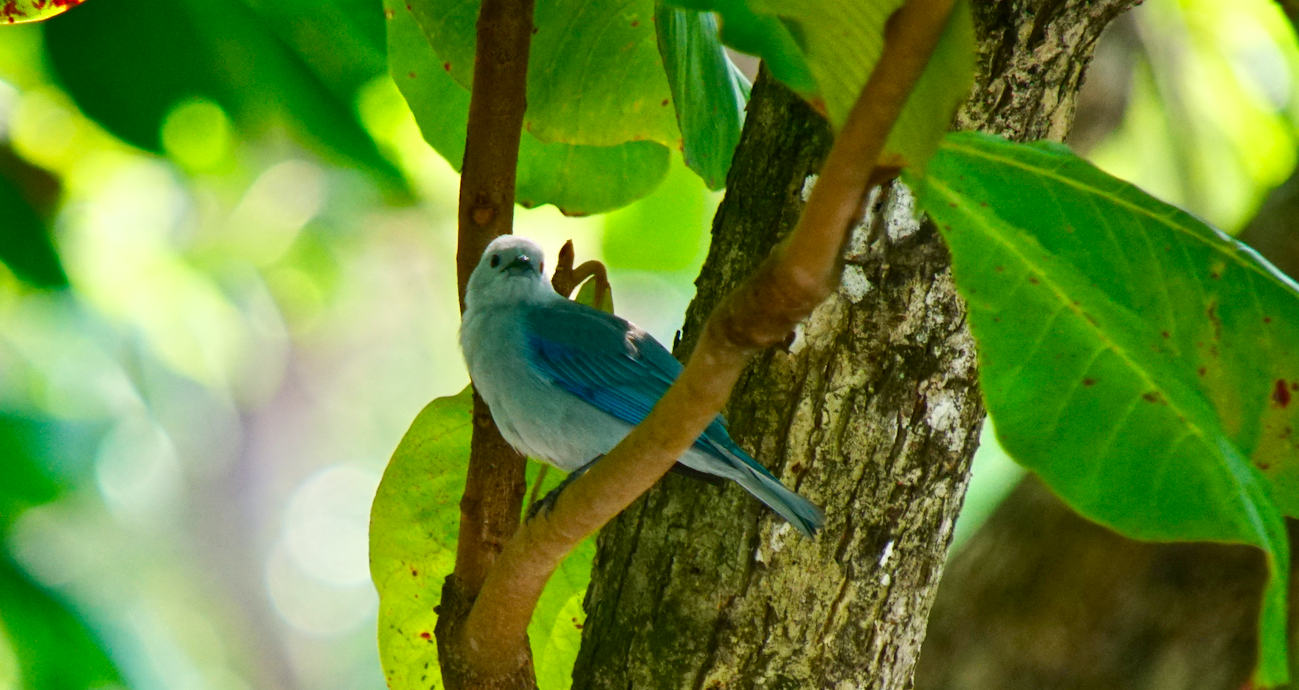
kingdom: Animalia
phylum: Chordata
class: Aves
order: Passeriformes
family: Thraupidae
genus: Thraupis
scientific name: Thraupis episcopus
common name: Blue-grey tanager
